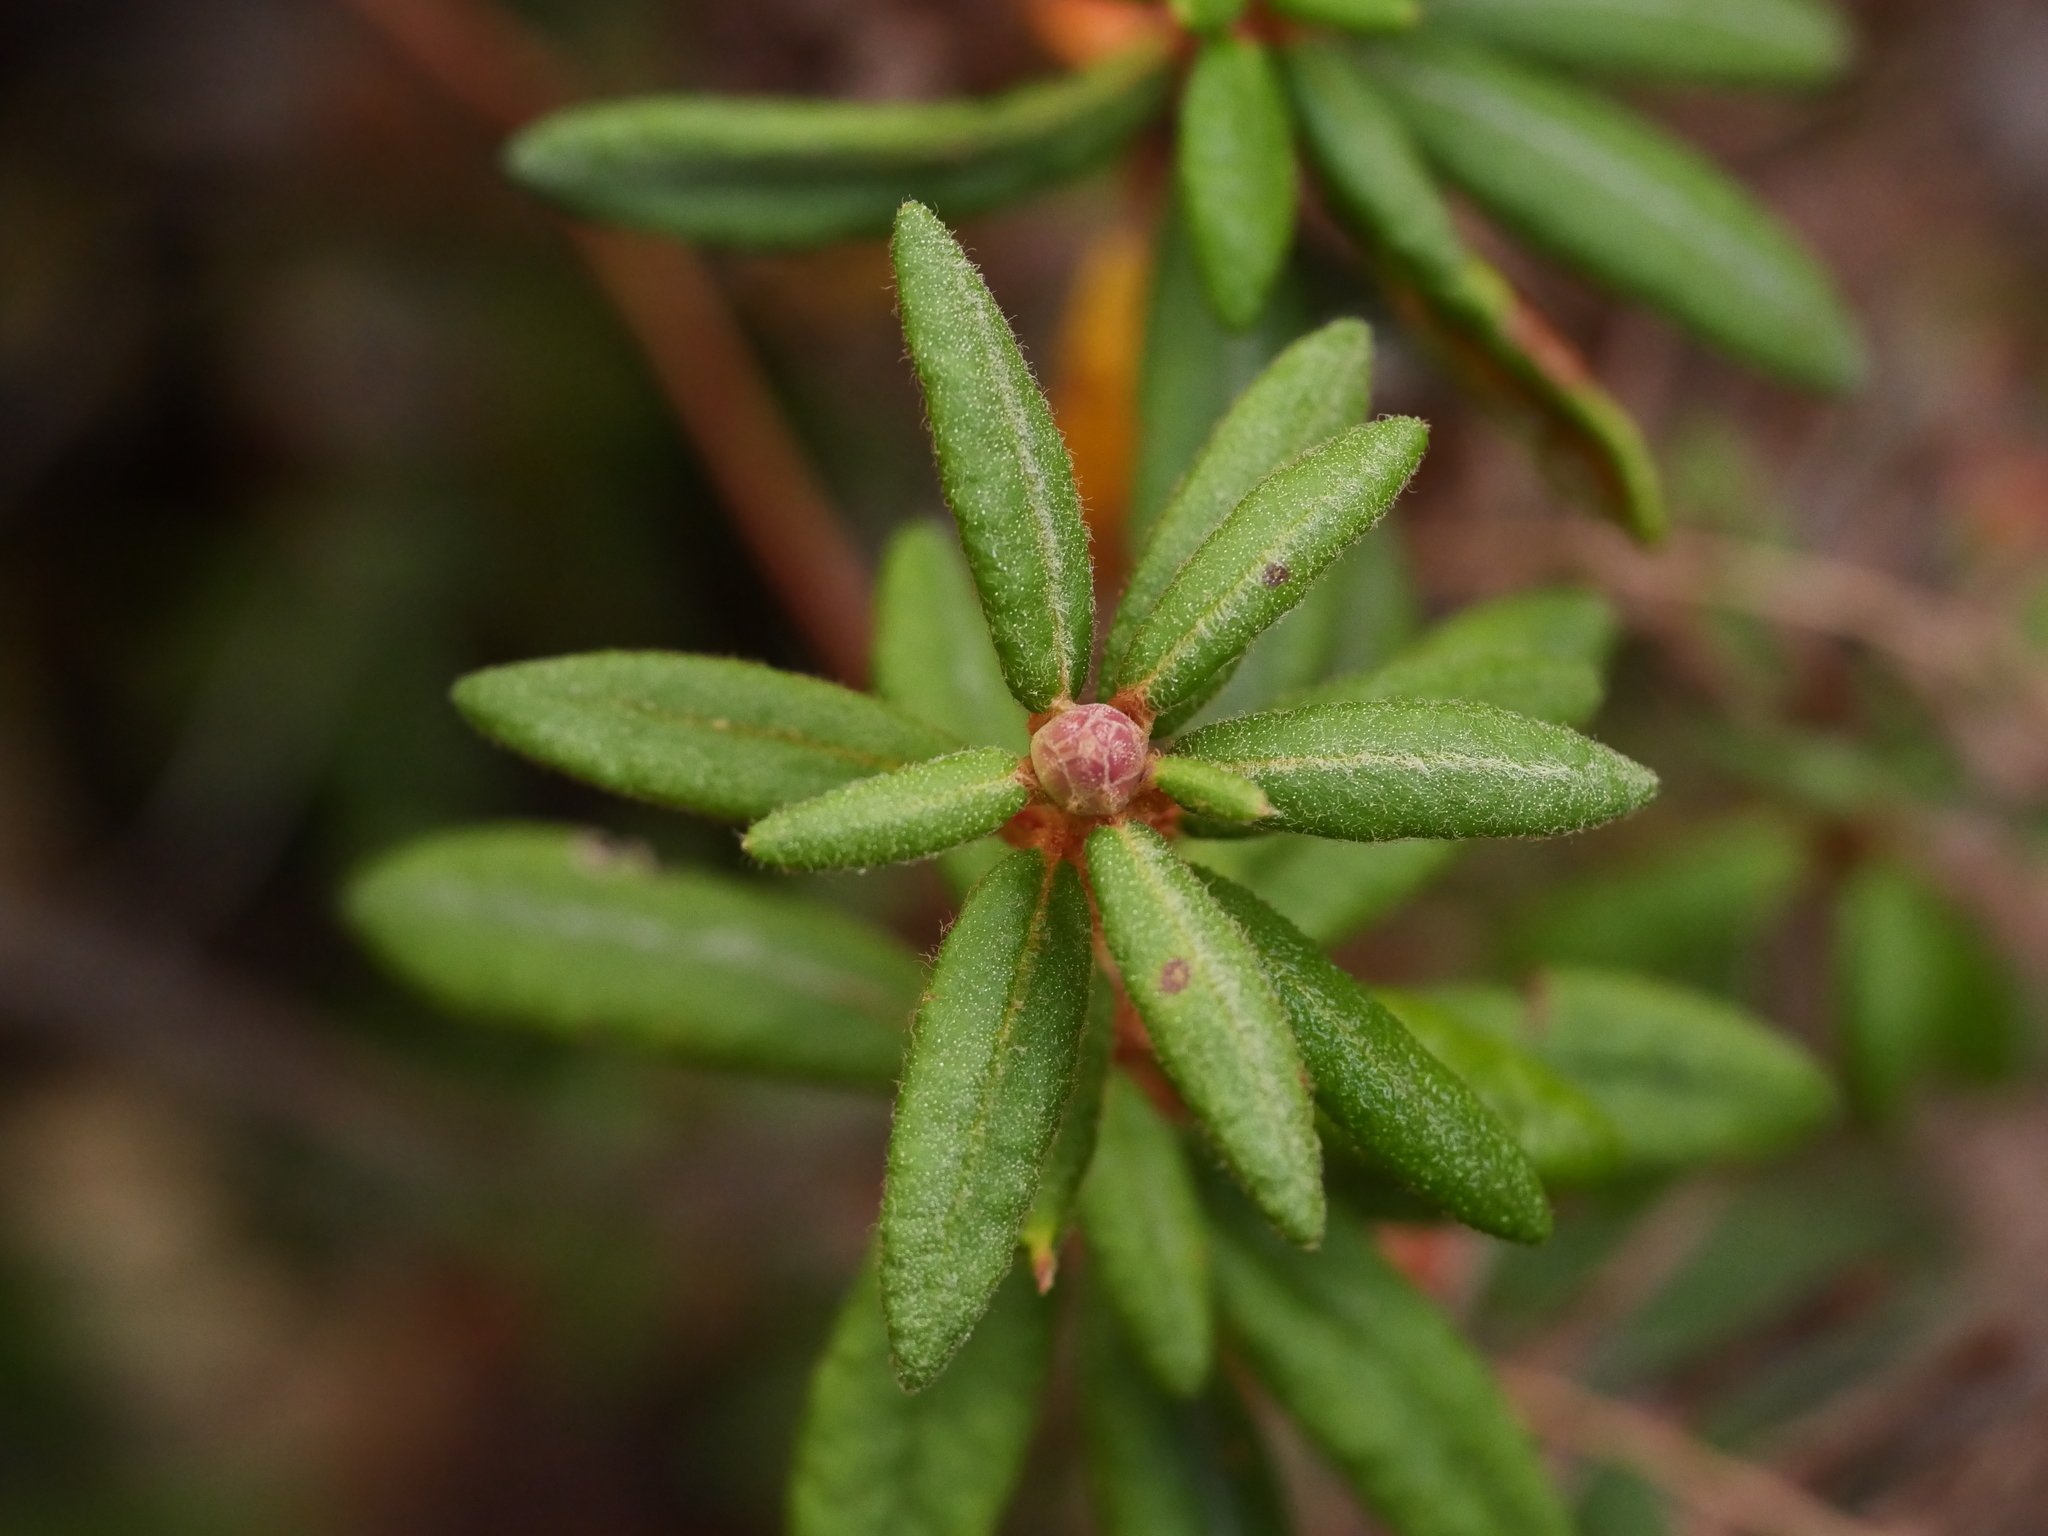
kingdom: Plantae
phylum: Tracheophyta
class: Magnoliopsida
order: Ericales
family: Ericaceae
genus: Rhododendron
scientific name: Rhododendron groenlandicum
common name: Bog labrador tea
